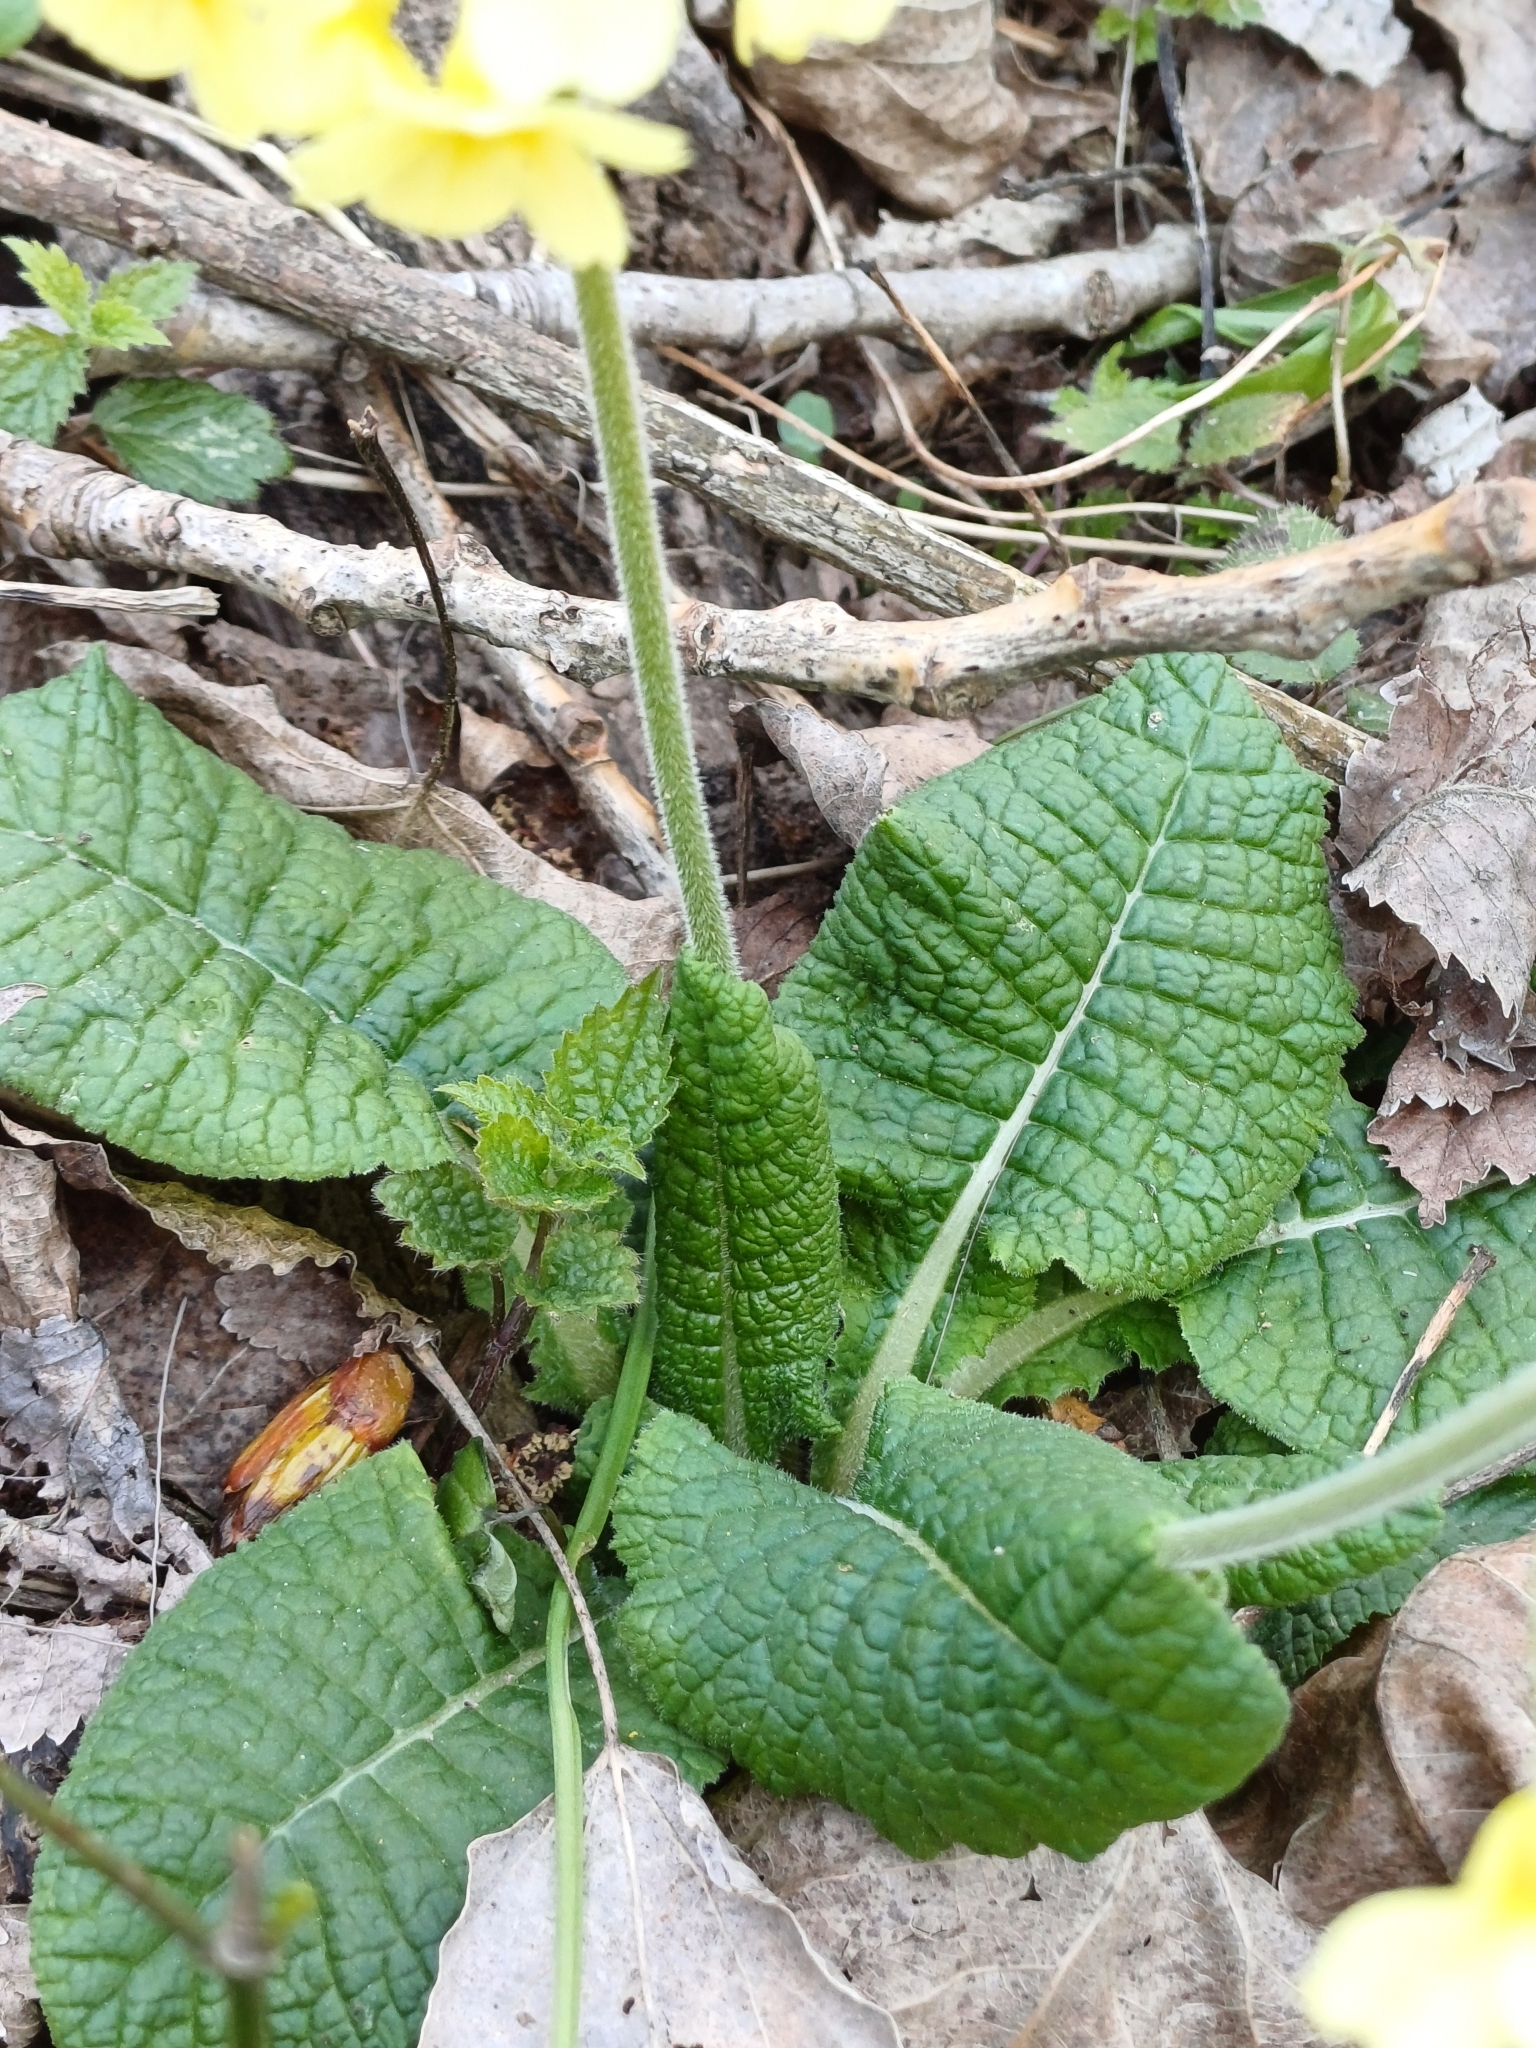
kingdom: Plantae
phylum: Tracheophyta
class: Magnoliopsida
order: Ericales
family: Primulaceae
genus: Primula
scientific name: Primula elatior
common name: Oxlip
